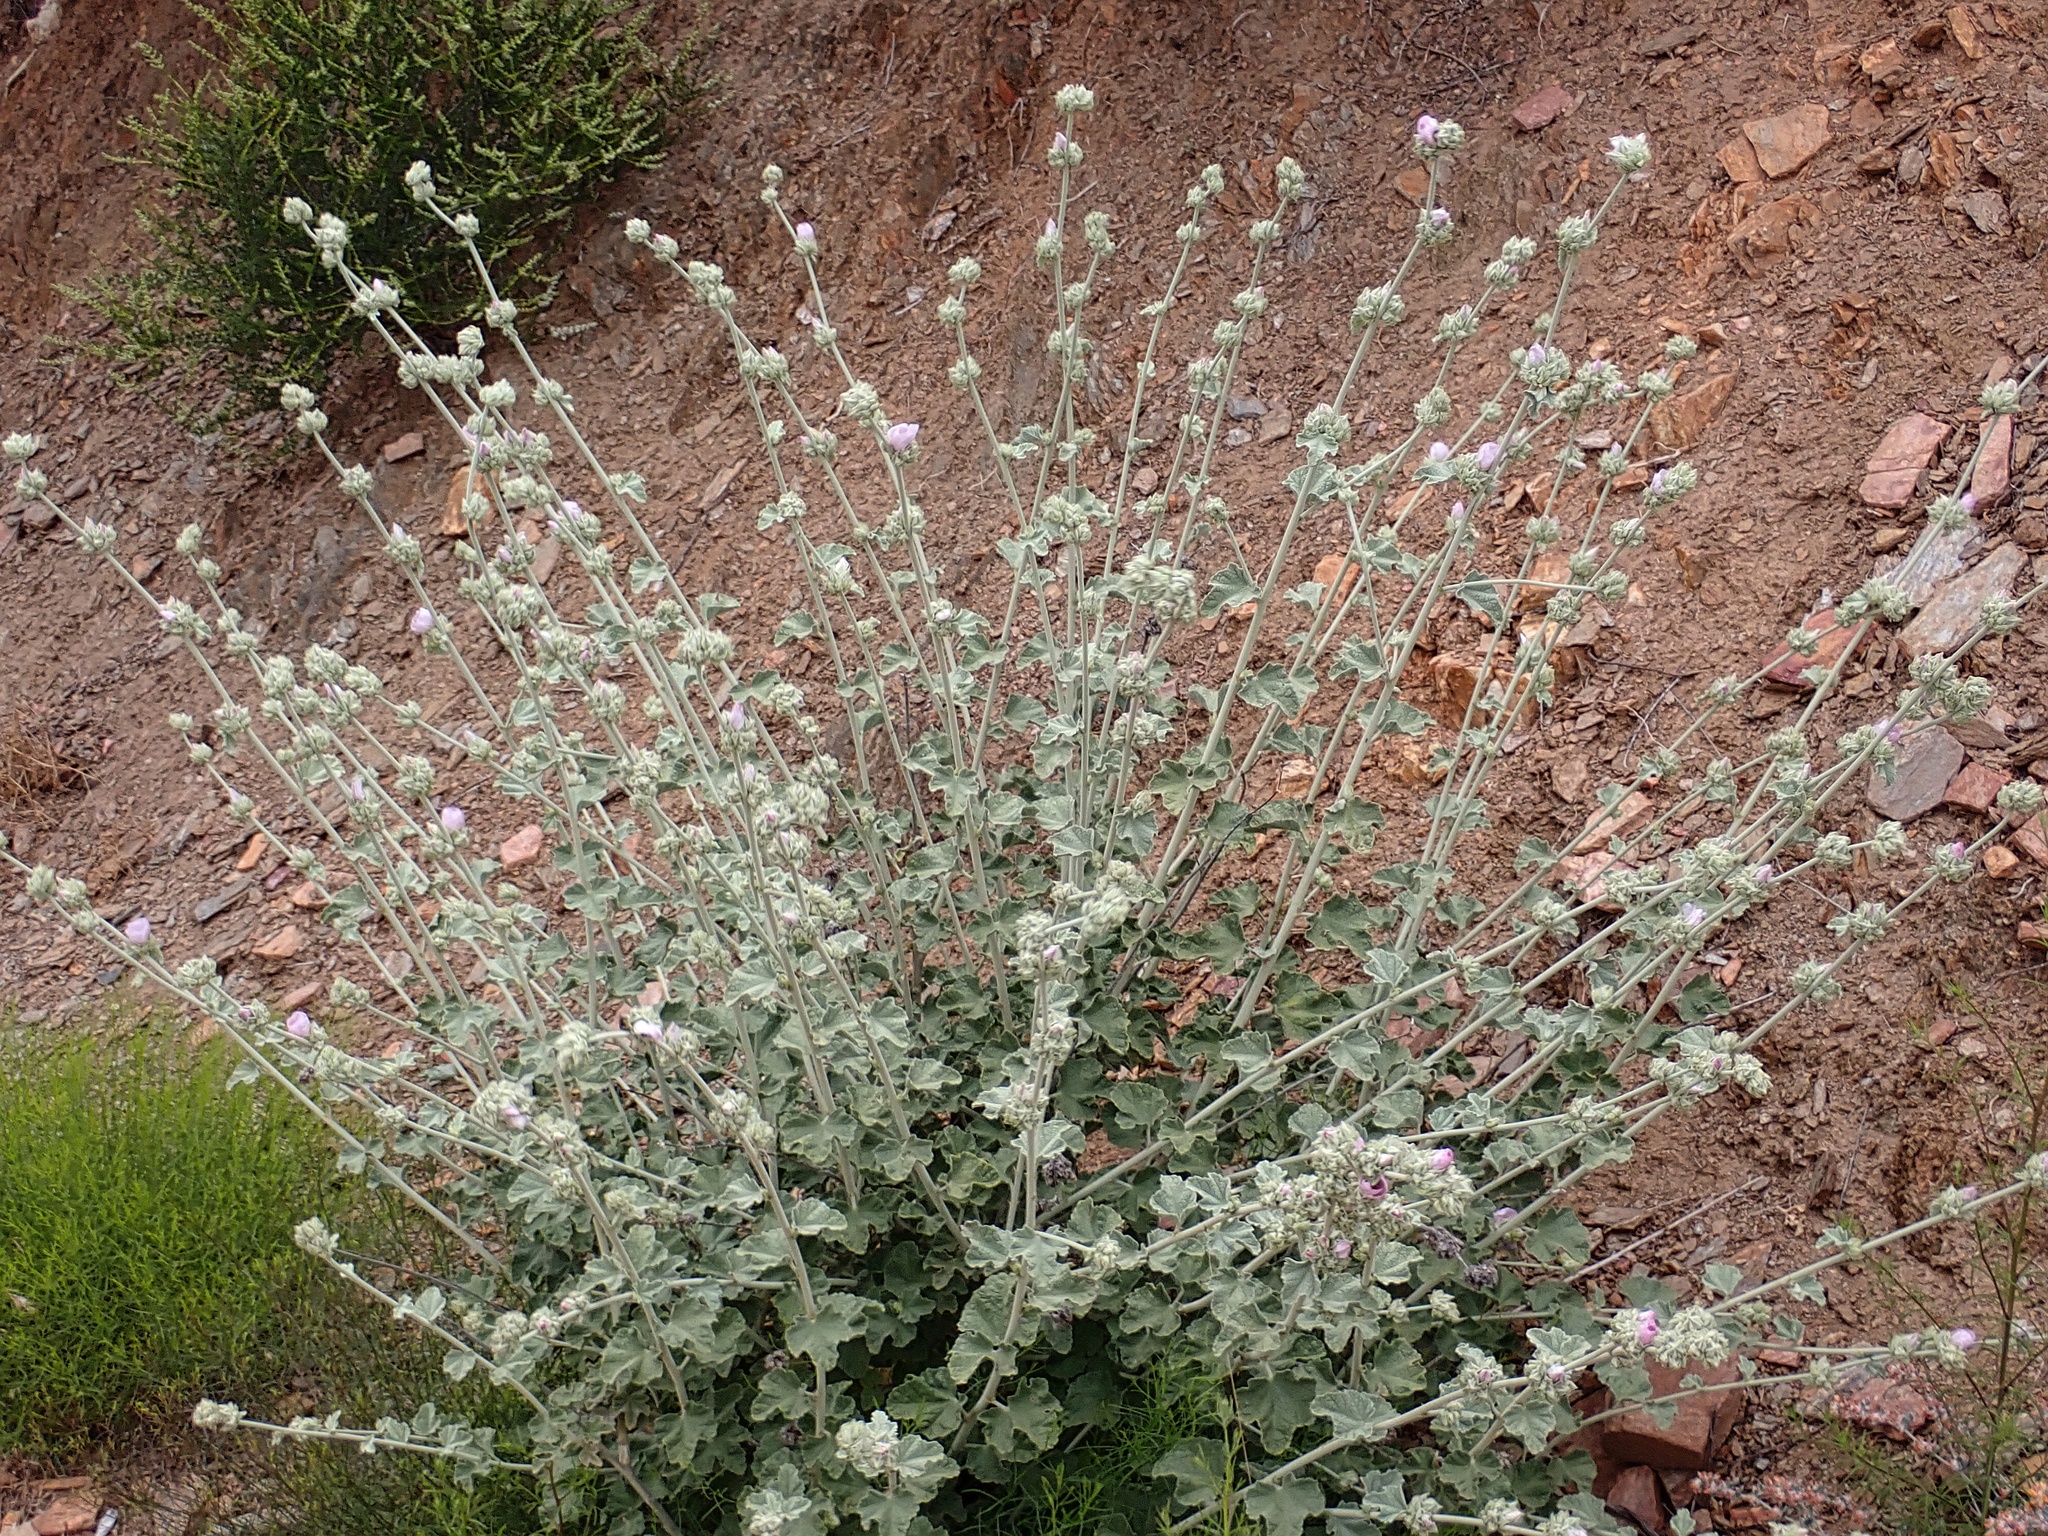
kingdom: Plantae
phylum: Tracheophyta
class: Magnoliopsida
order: Malvales
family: Malvaceae
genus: Malacothamnus
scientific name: Malacothamnus enigmaticus
